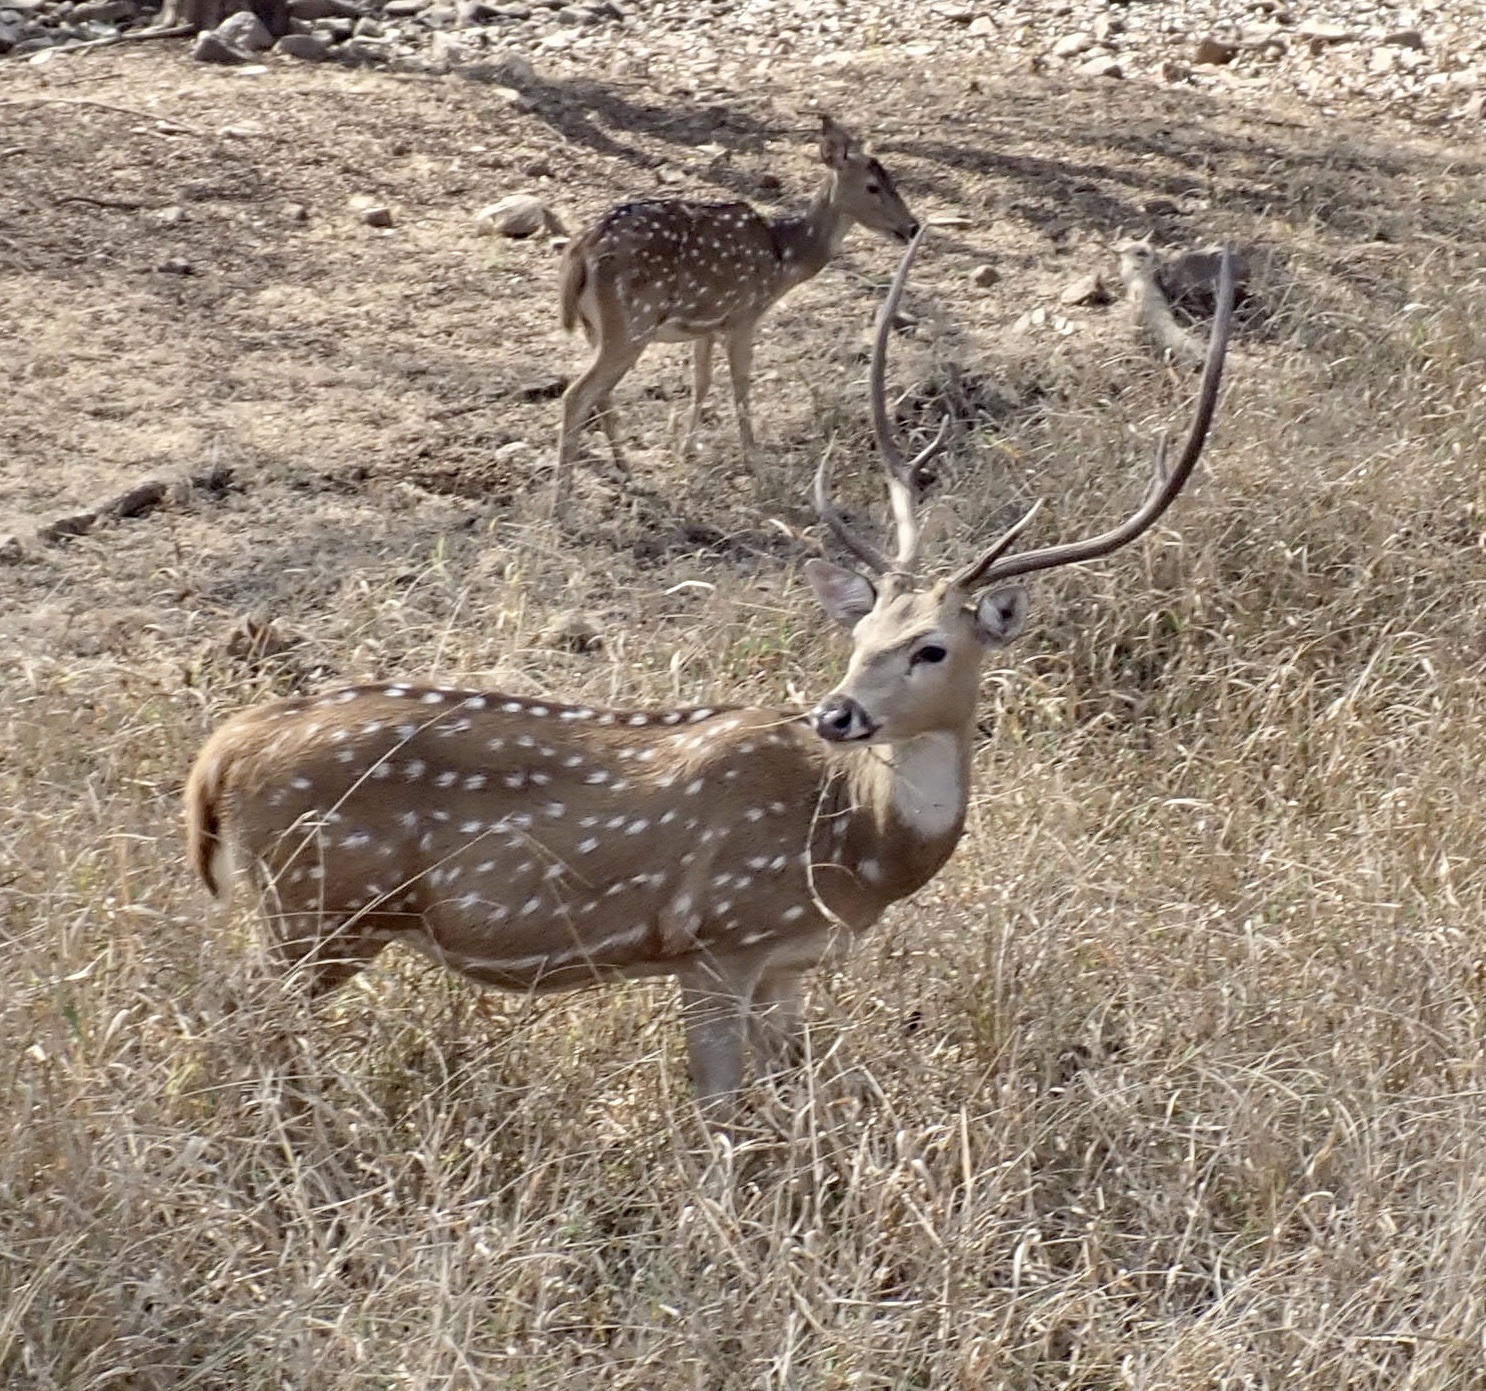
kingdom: Animalia
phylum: Chordata
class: Mammalia
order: Artiodactyla
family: Cervidae
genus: Axis
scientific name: Axis axis
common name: Chital
